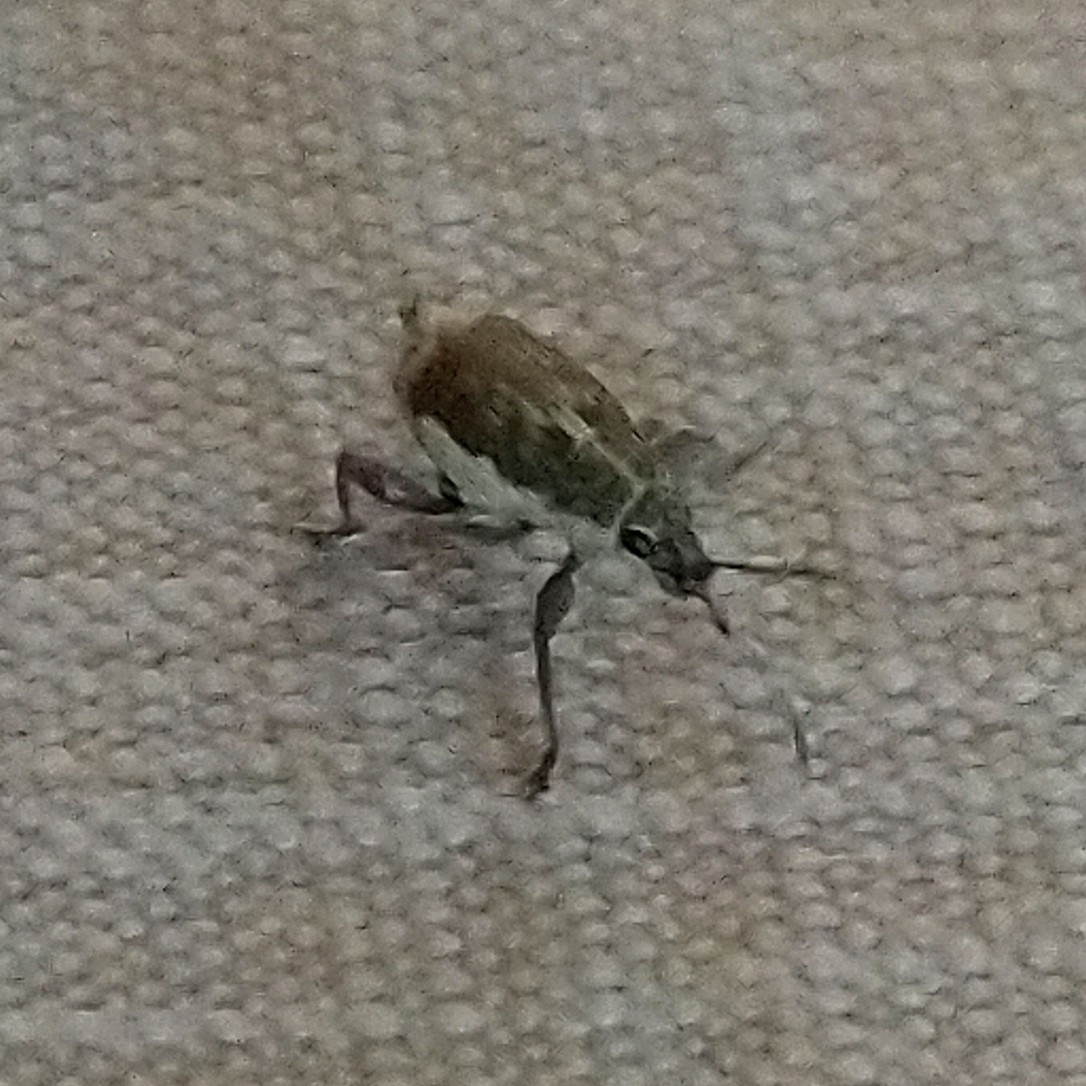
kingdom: Animalia
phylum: Arthropoda
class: Insecta
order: Coleoptera
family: Curculionidae
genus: Sciobius
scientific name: Sciobius pullus
